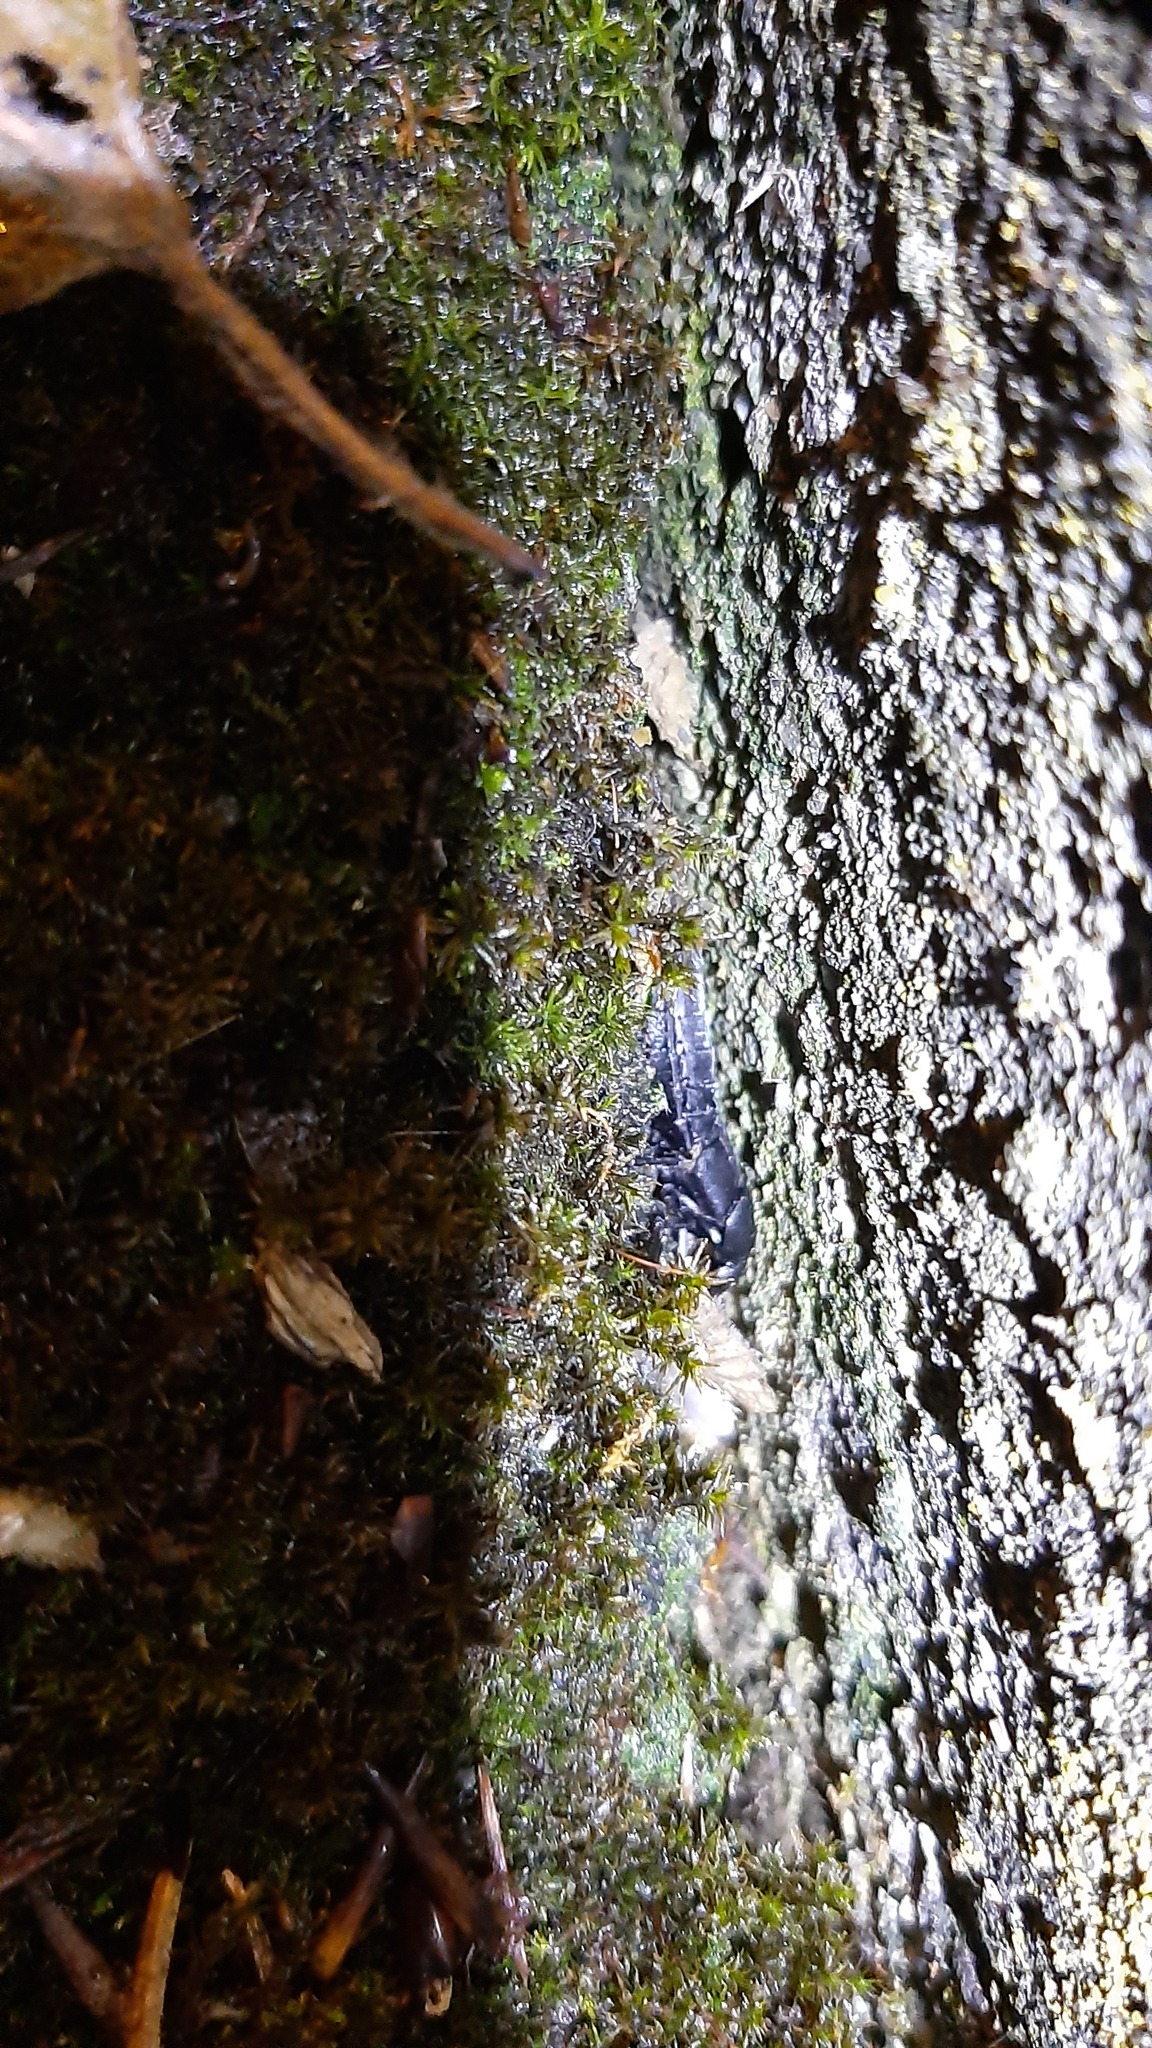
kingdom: Animalia
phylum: Arthropoda
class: Insecta
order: Coleoptera
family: Staphylinidae
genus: Ocypus
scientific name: Ocypus olens
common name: Devil's coach-horse
